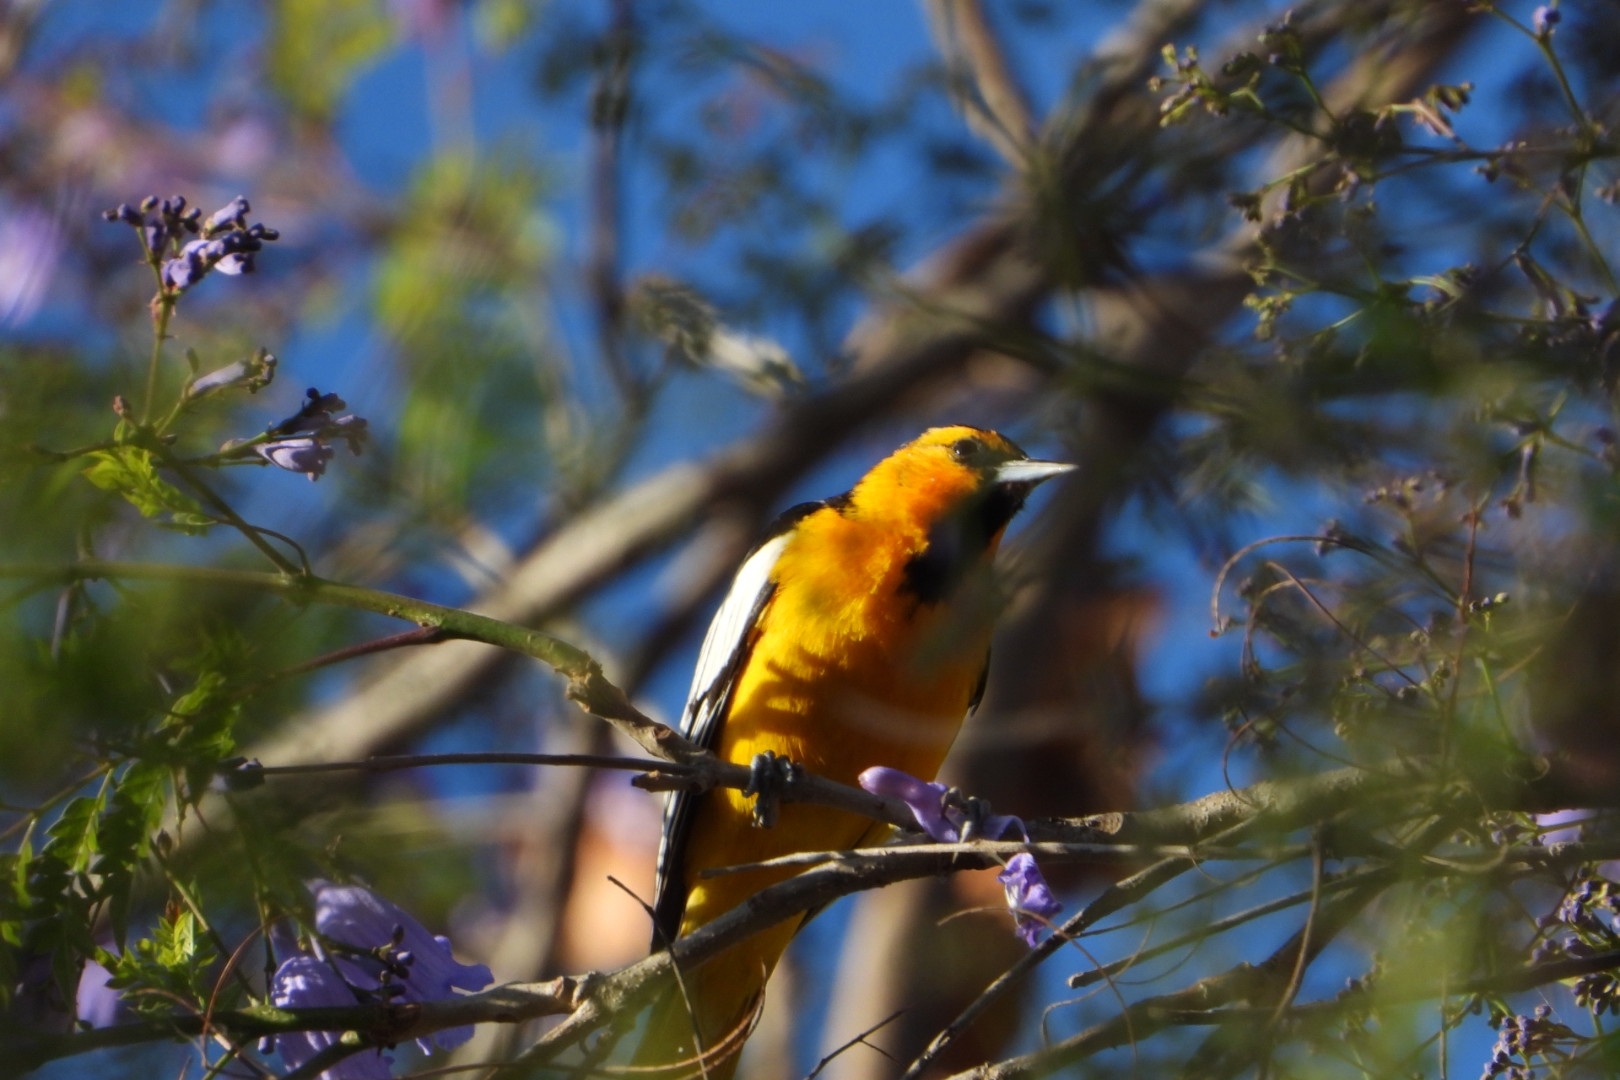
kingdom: Animalia
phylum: Chordata
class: Aves
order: Passeriformes
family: Icteridae
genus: Icterus
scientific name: Icterus bullockii
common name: Bullock's oriole
